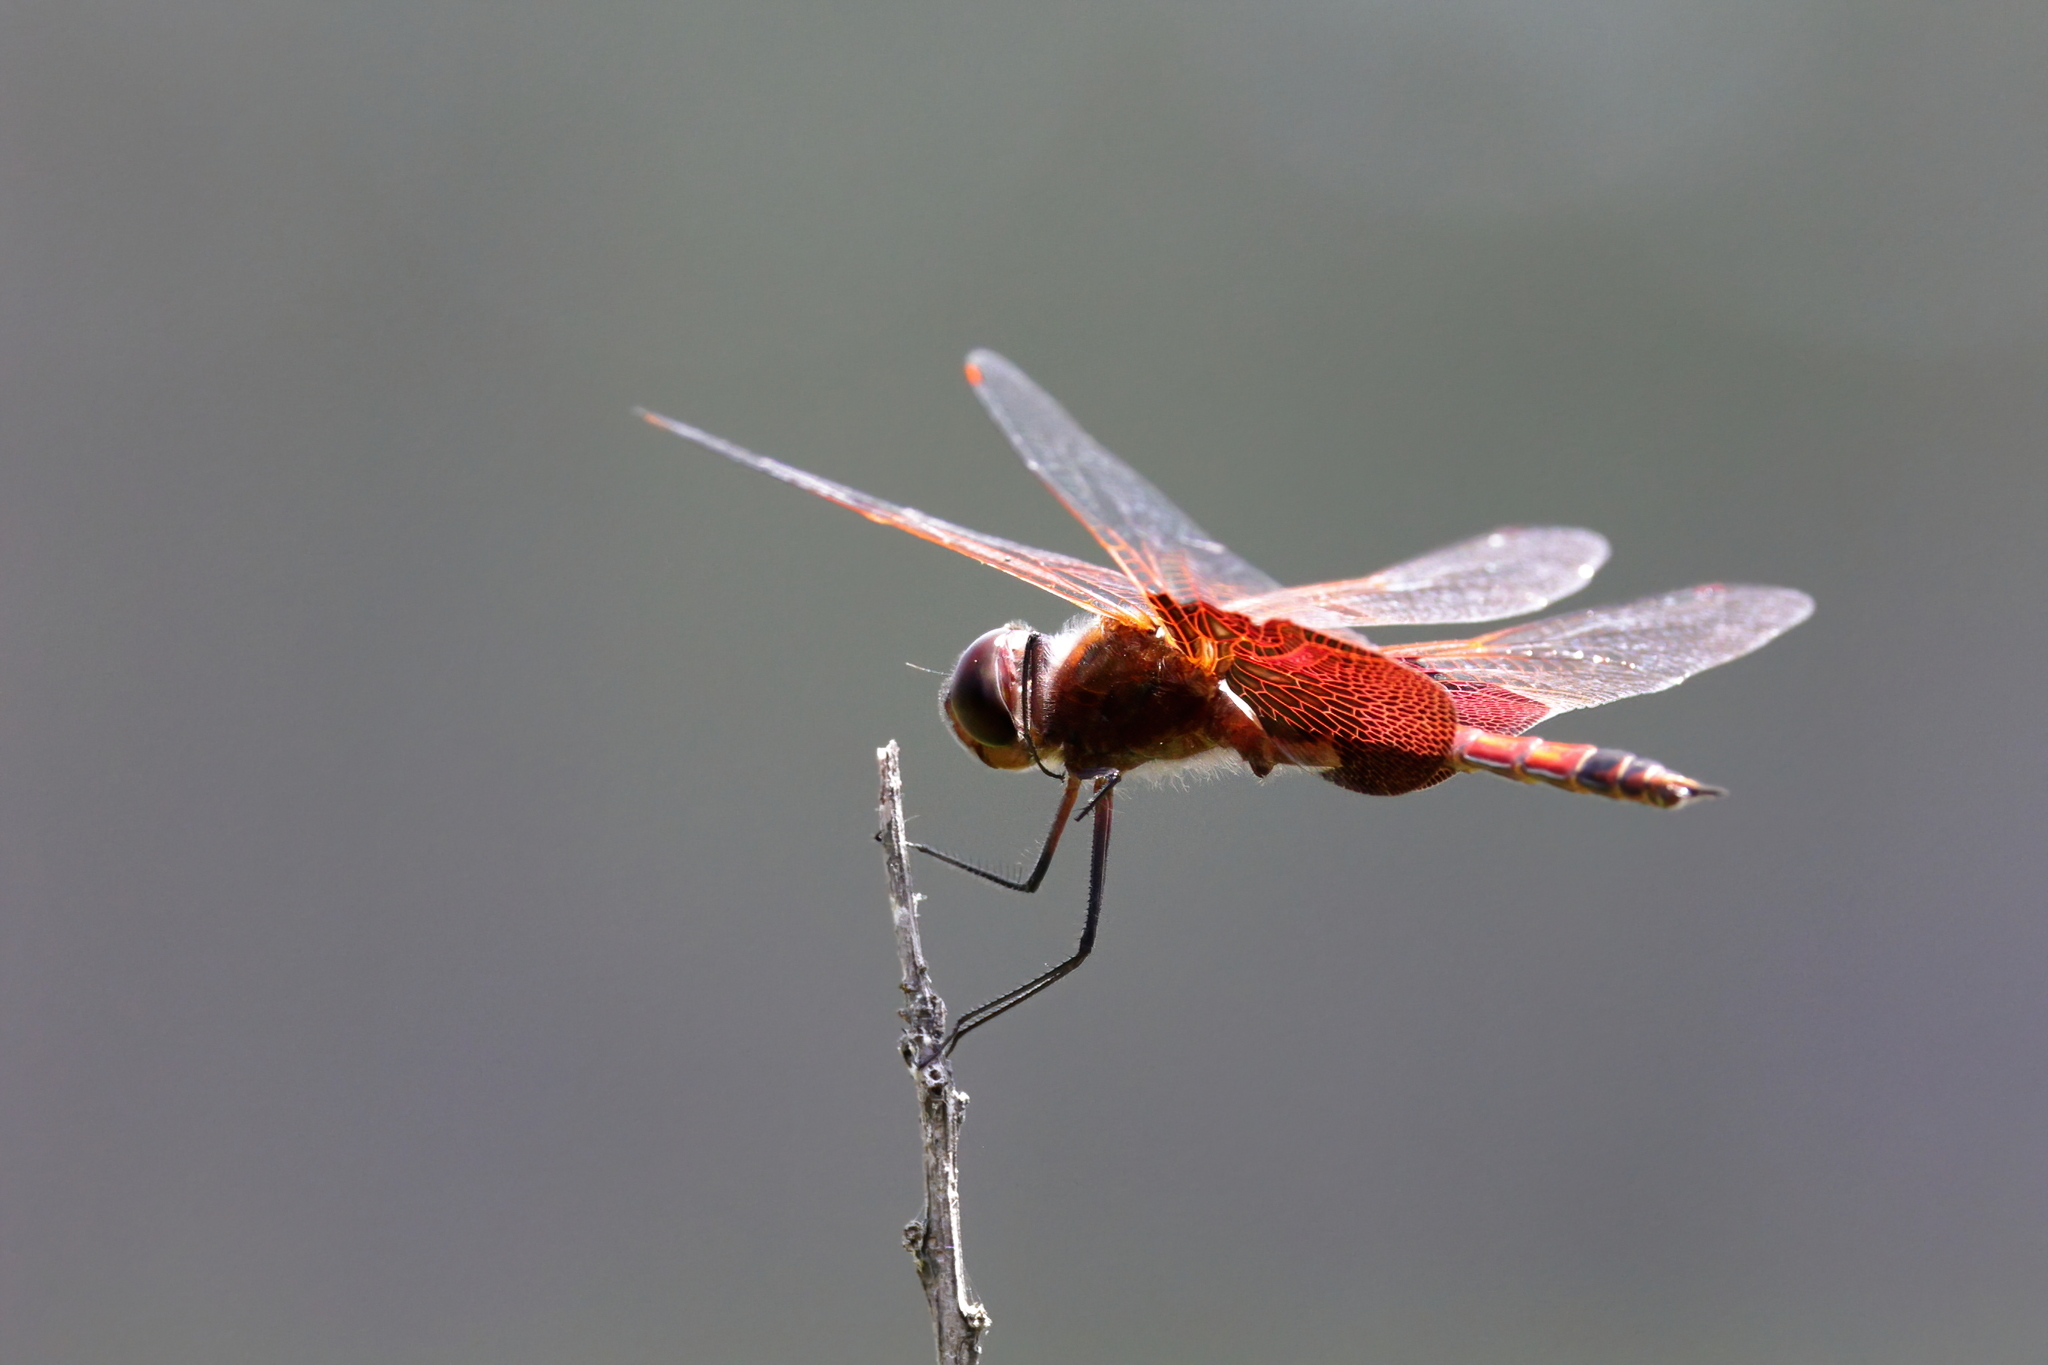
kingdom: Animalia
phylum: Arthropoda
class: Insecta
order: Odonata
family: Libellulidae
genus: Tramea
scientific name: Tramea carolina
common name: Carolina saddlebags
